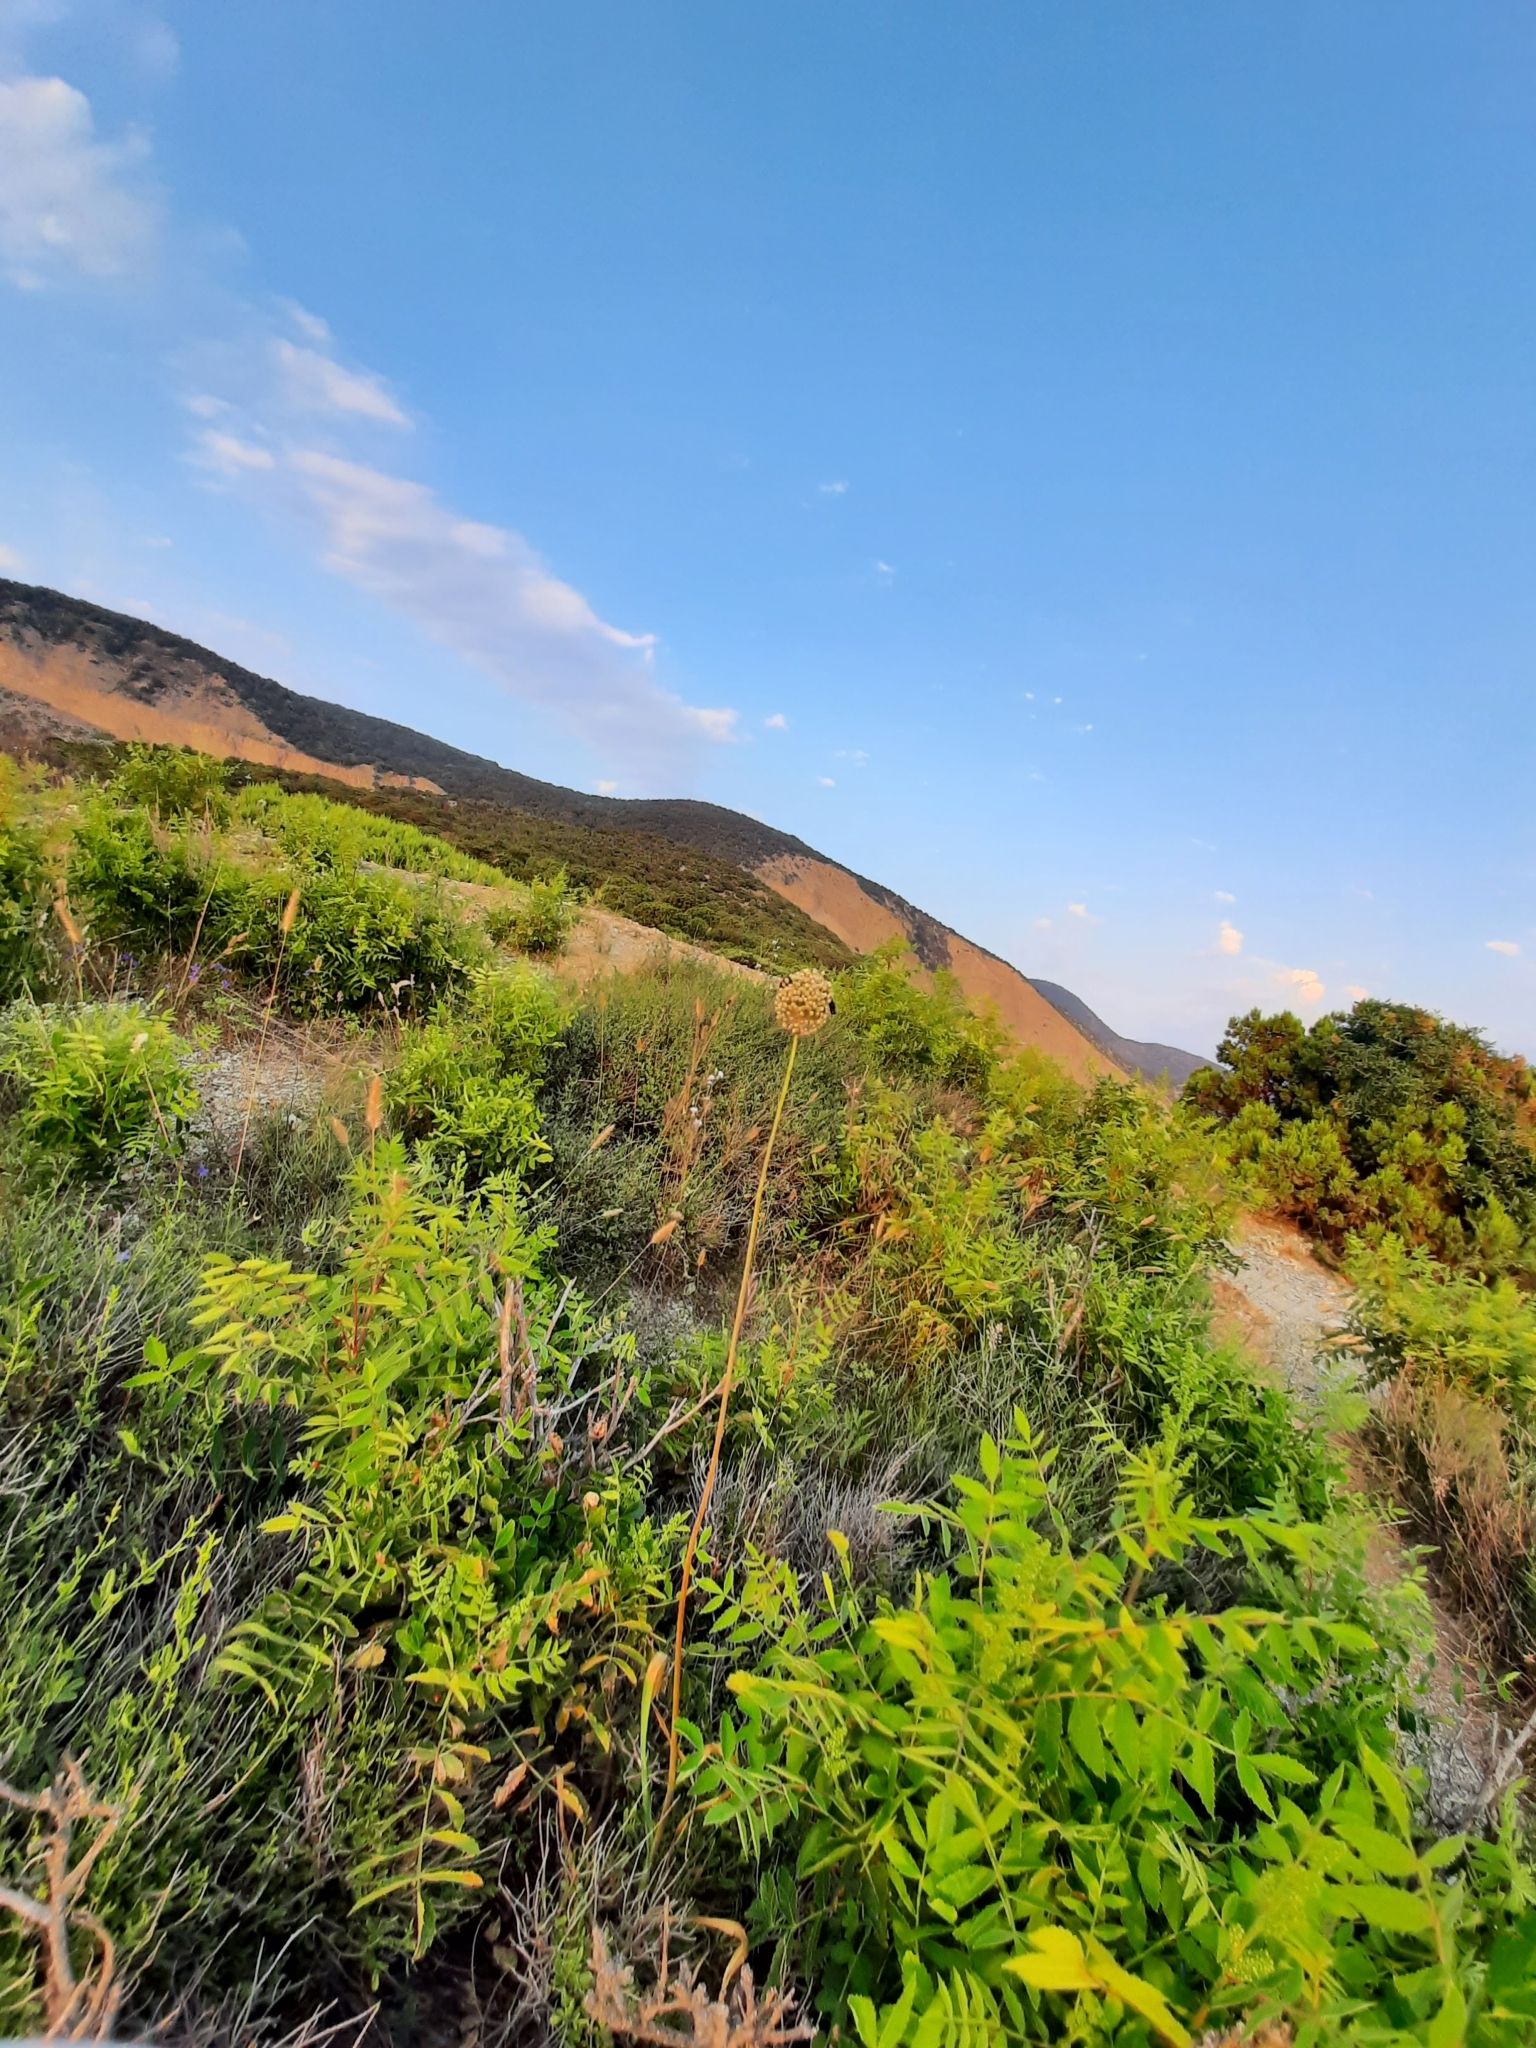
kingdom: Plantae
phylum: Tracheophyta
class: Liliopsida
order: Asparagales
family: Amaryllidaceae
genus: Allium
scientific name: Allium atroviolaceum
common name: Broadleaf wild leek
